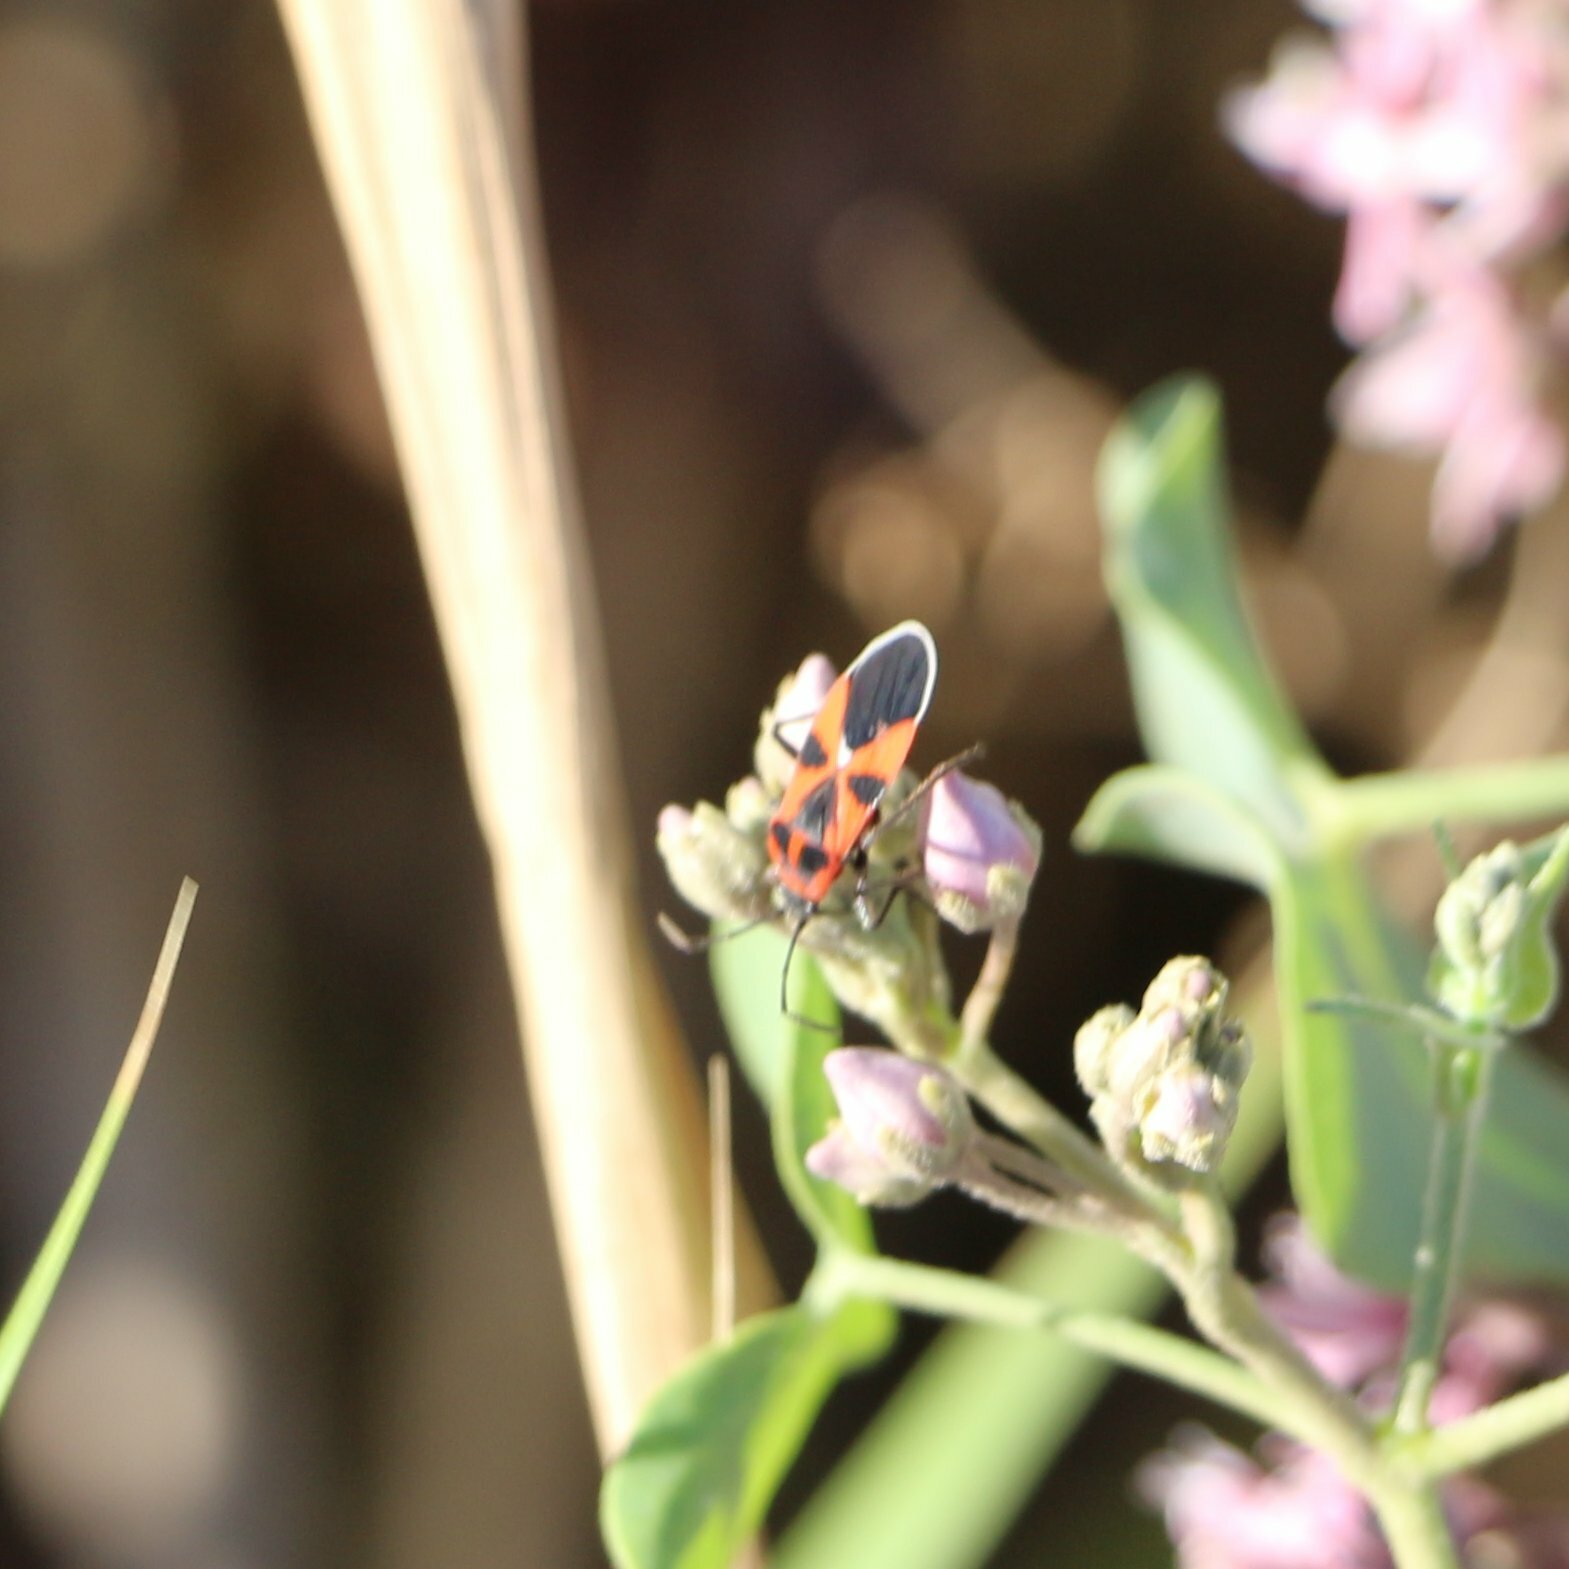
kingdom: Animalia
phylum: Arthropoda
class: Insecta
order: Hemiptera
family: Lygaeidae
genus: Tropidothorax
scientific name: Tropidothorax leucopterus
